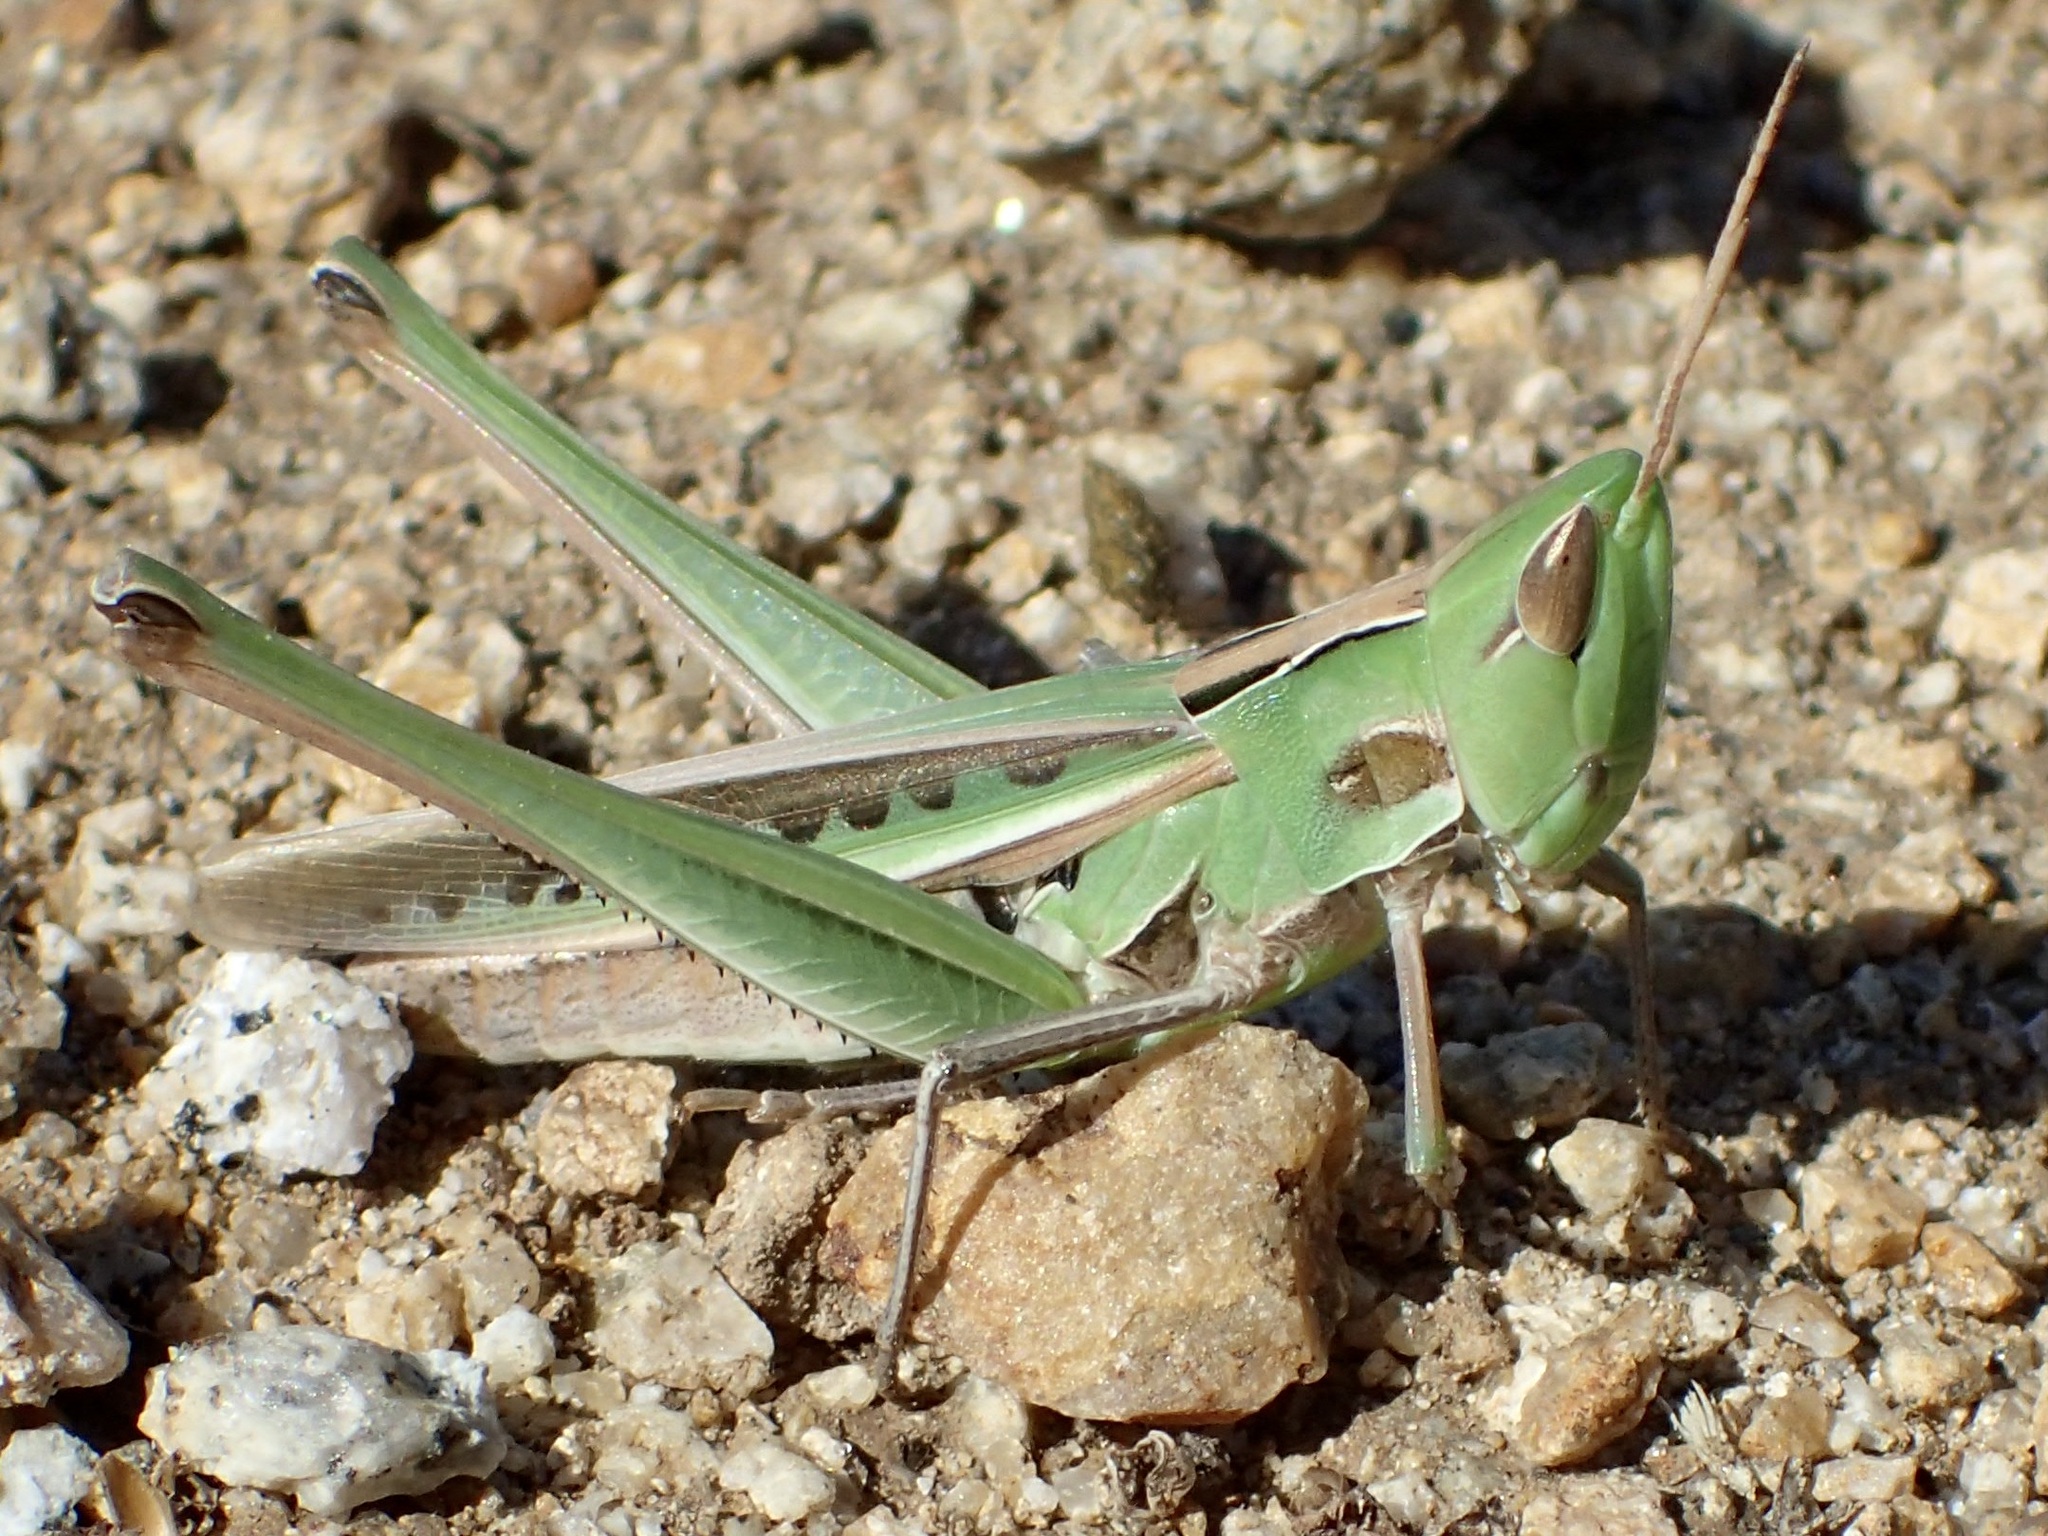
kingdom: Animalia
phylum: Arthropoda
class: Insecta
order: Orthoptera
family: Acrididae
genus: Syrbula
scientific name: Syrbula montezuma
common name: Montezuma's grasshopper
